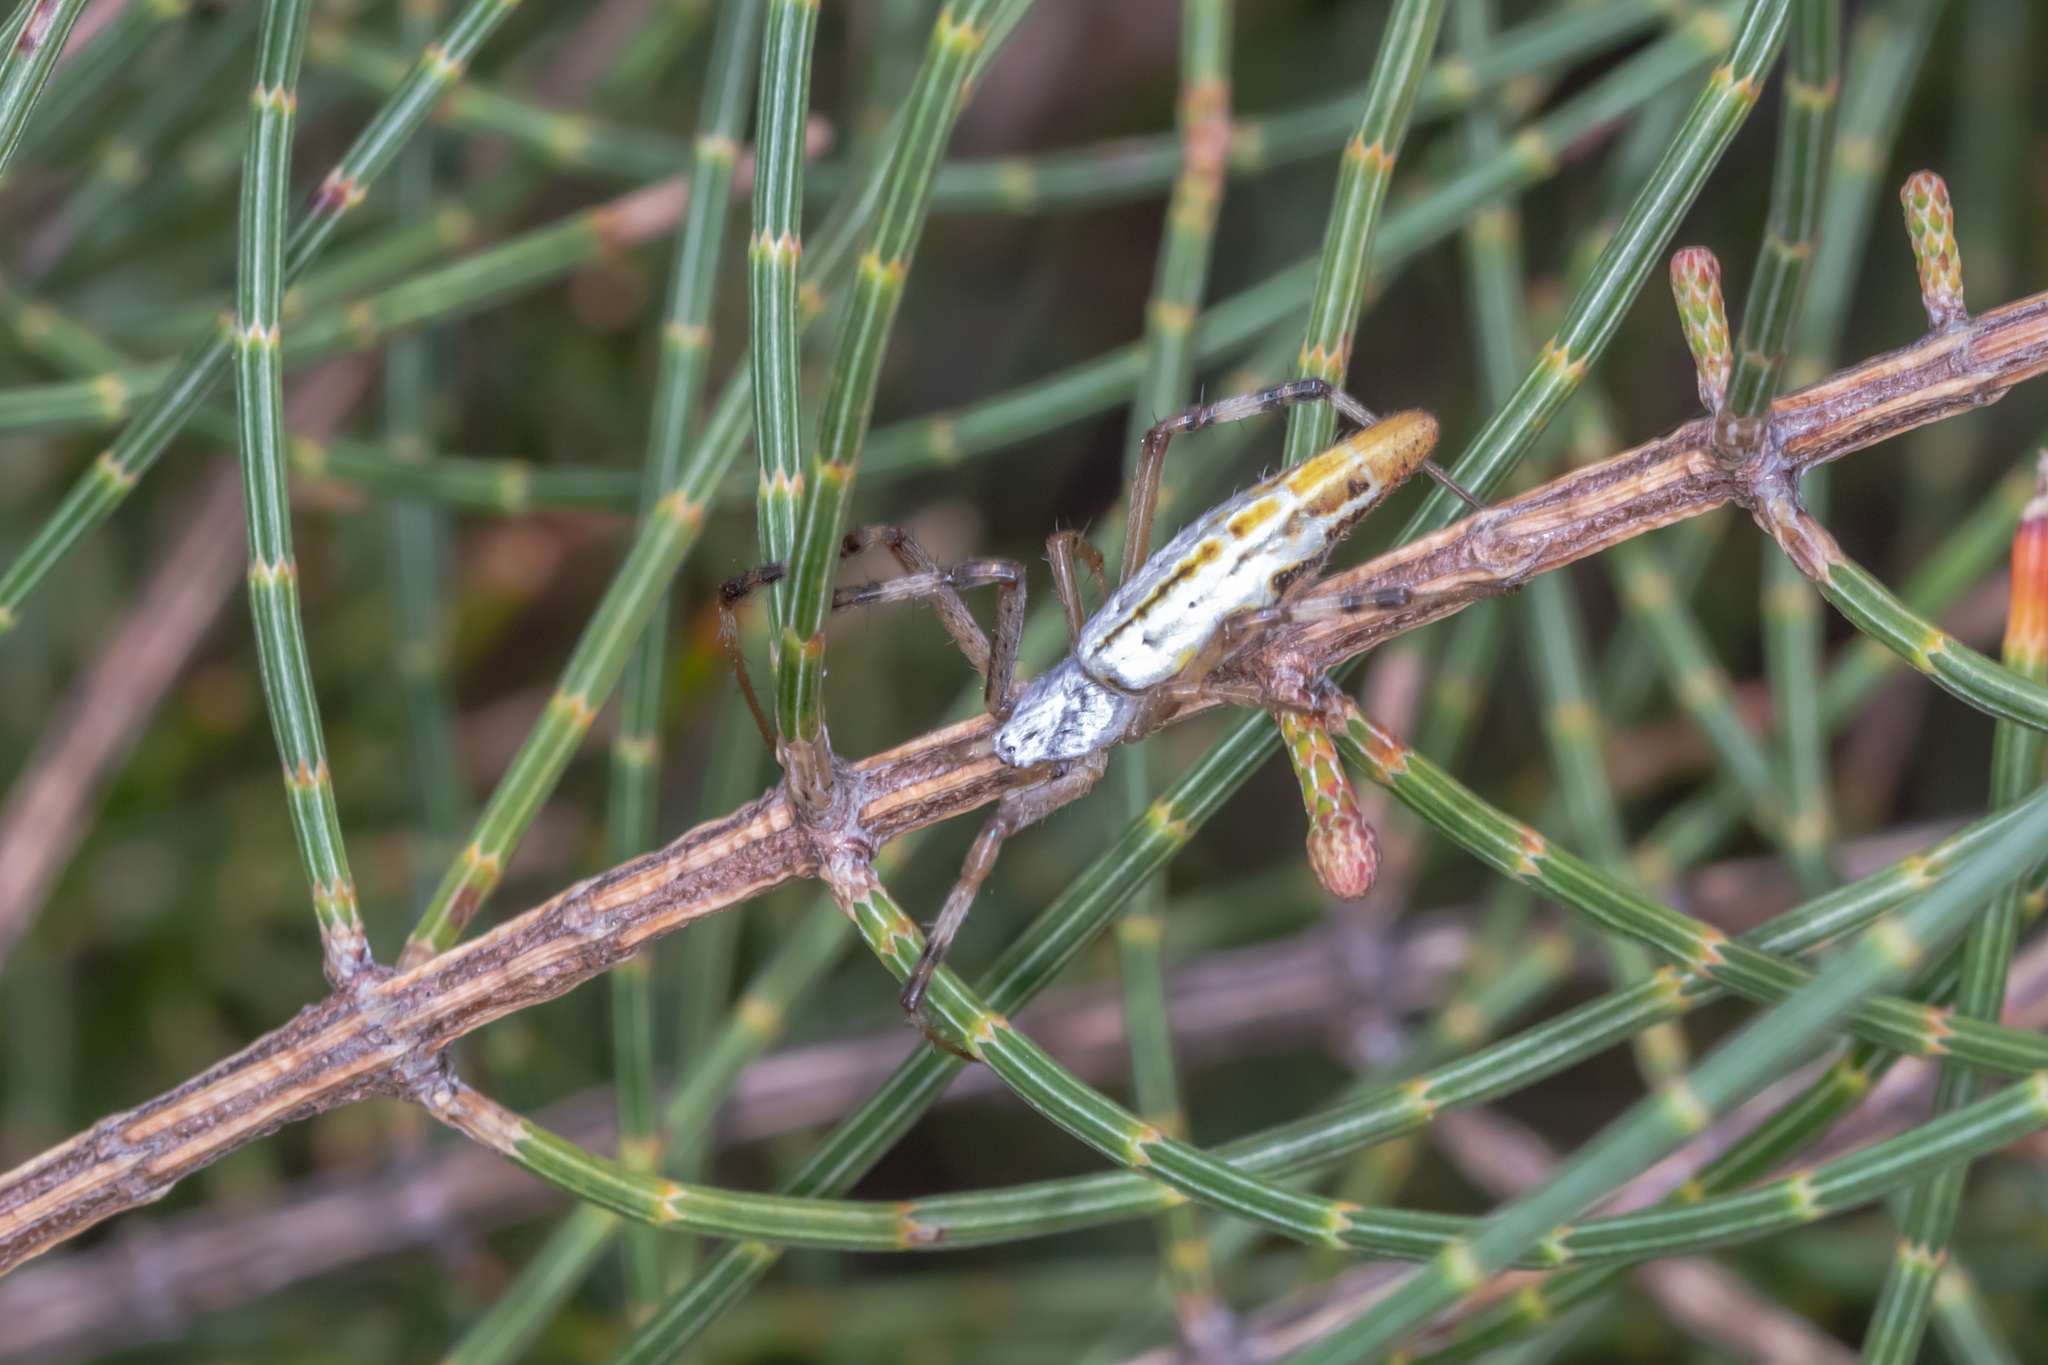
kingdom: Animalia
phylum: Arthropoda
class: Arachnida
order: Araneae
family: Araneidae
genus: Argiope
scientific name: Argiope protensa
